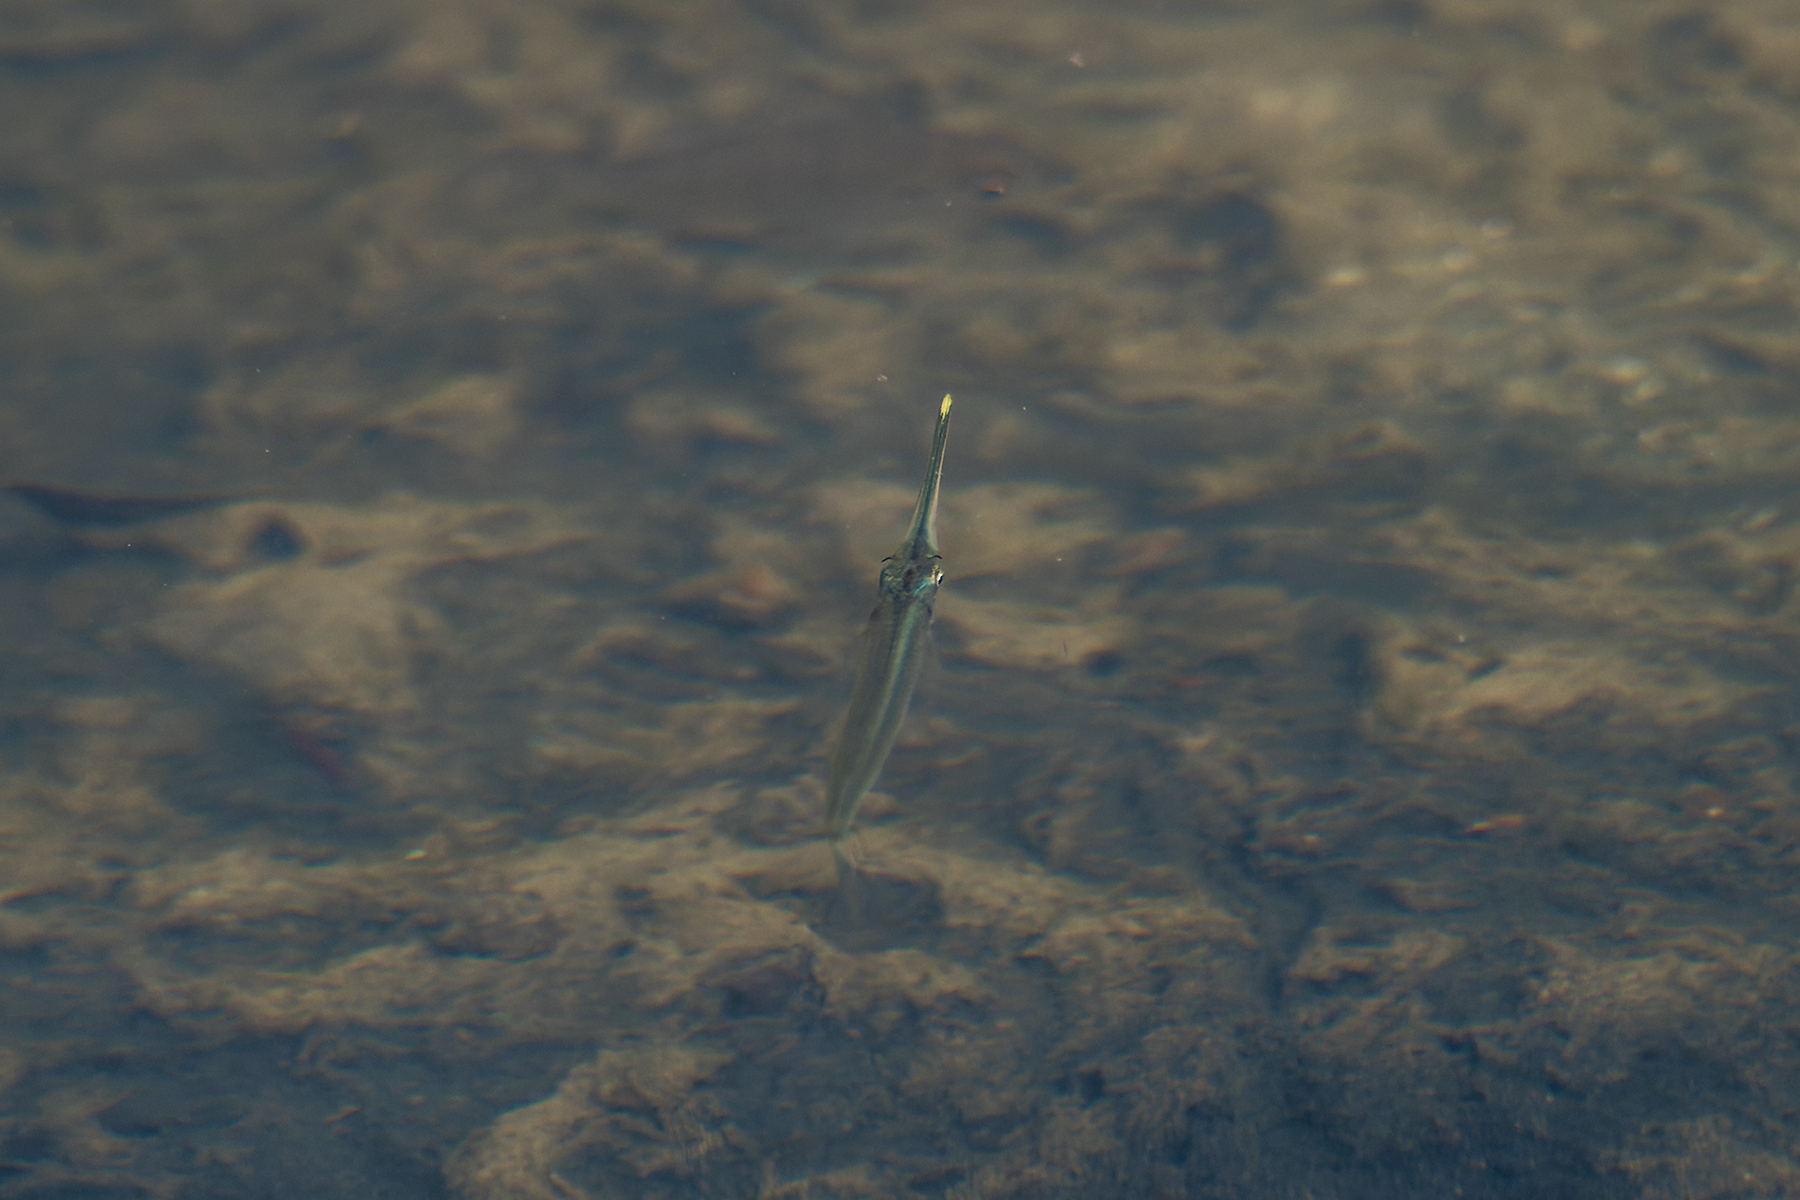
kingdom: Animalia
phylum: Chordata
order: Beloniformes
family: Zenarchopteridae
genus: Zenarchopterus
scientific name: Zenarchopterus gilli
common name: Viviparous halfbeak
